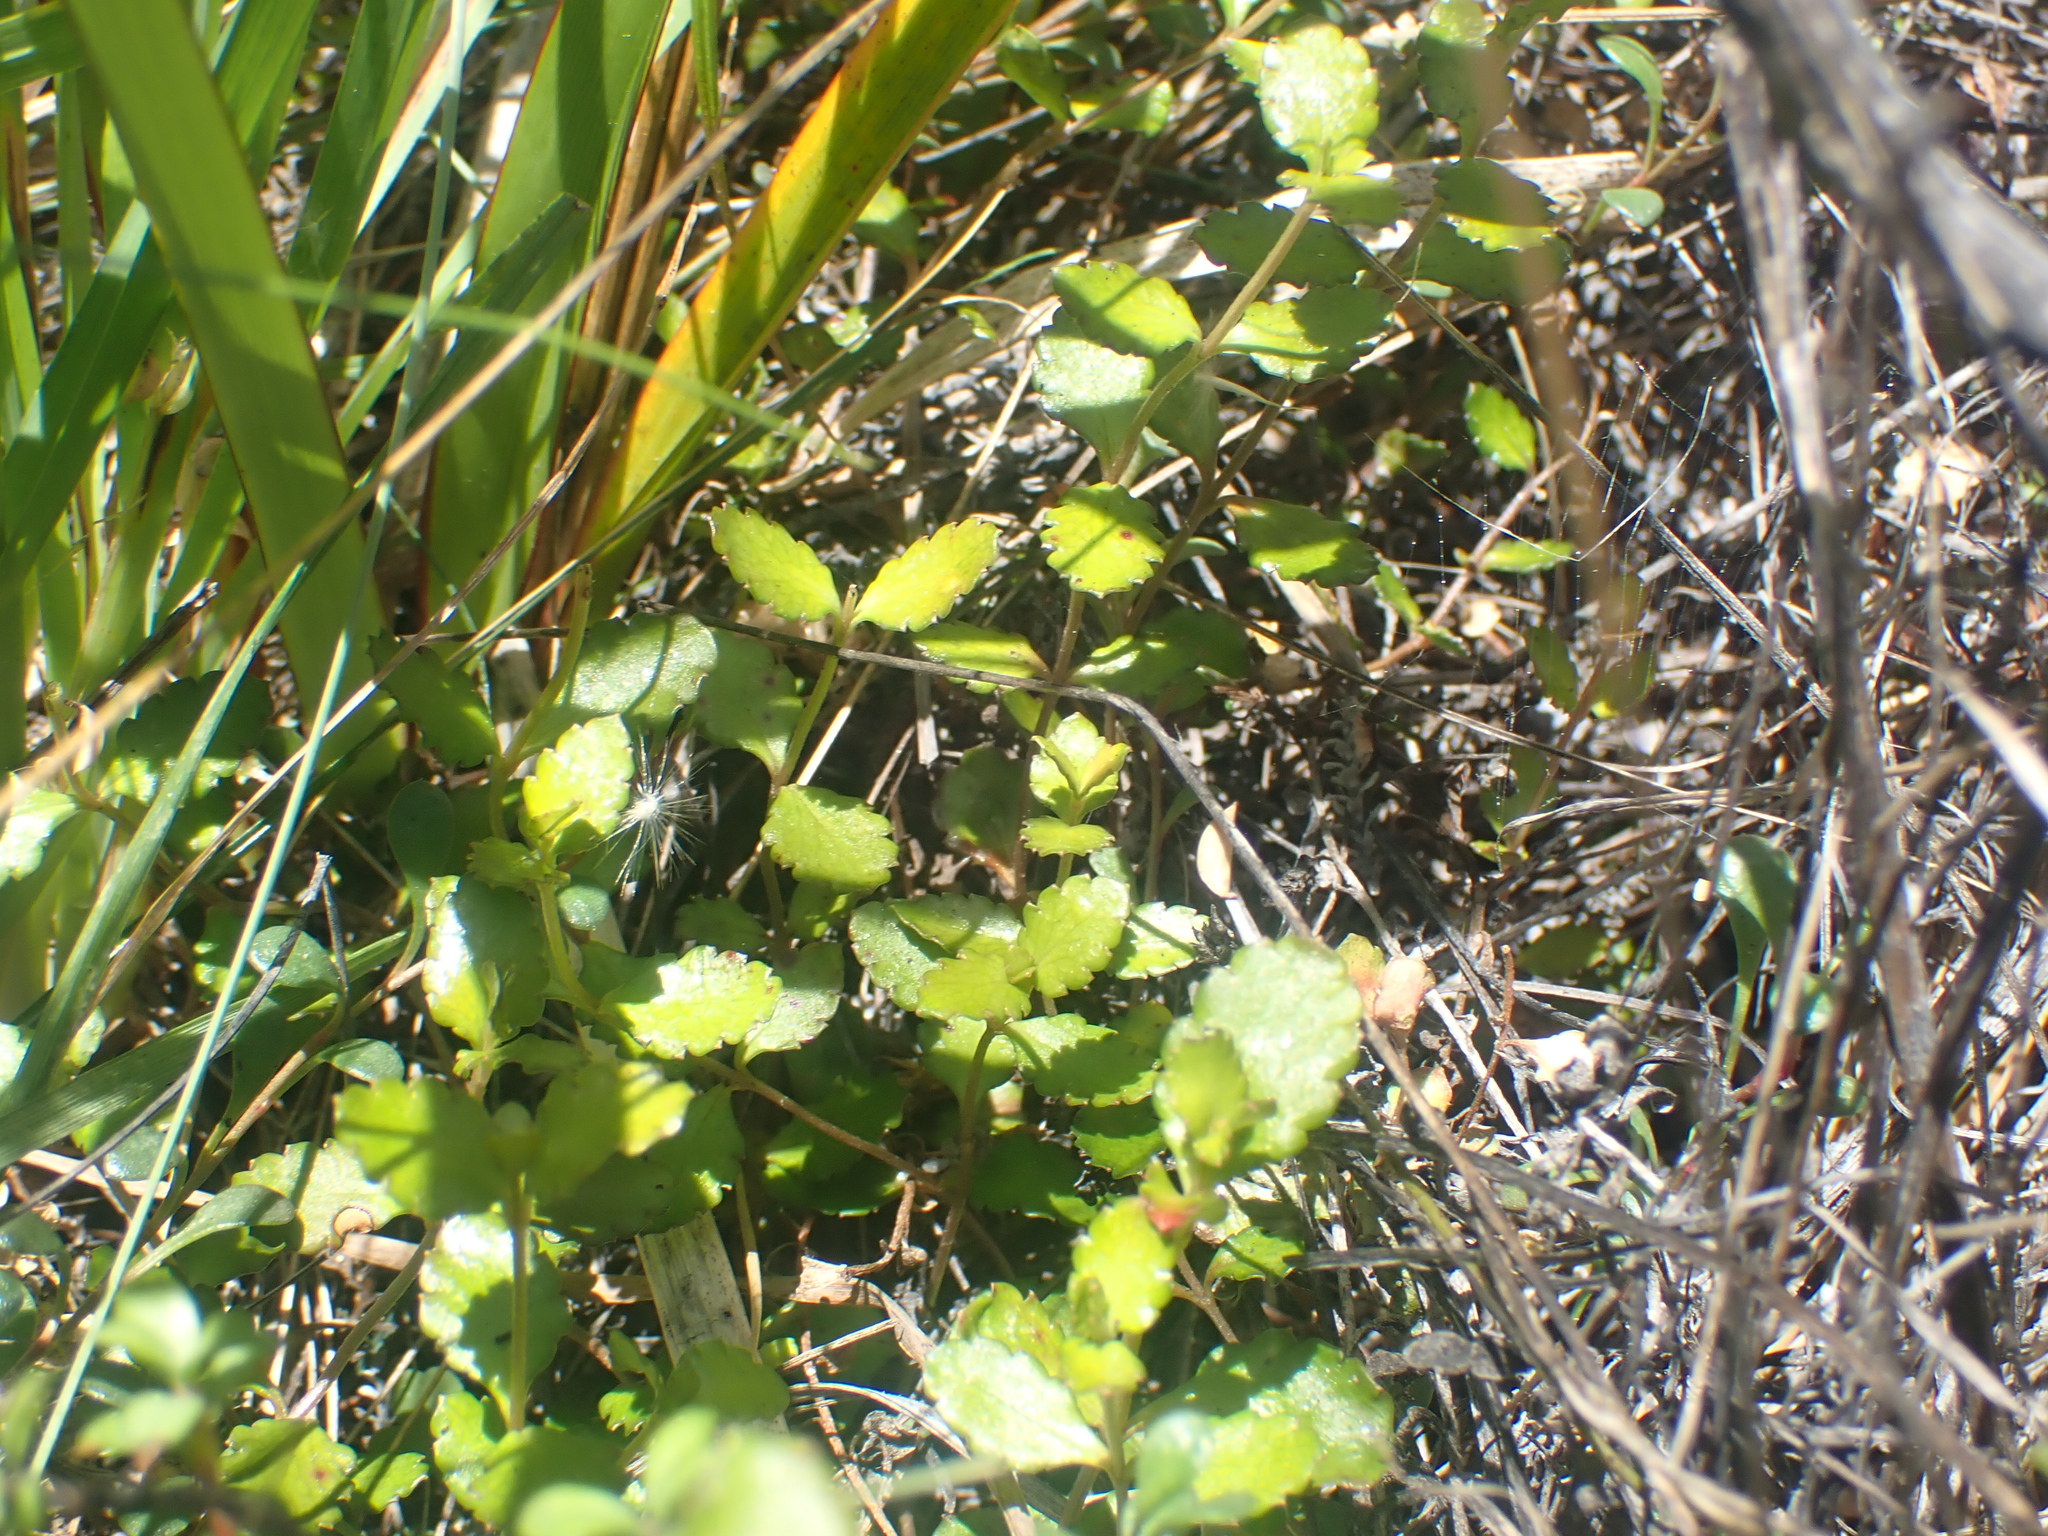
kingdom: Plantae
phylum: Tracheophyta
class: Magnoliopsida
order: Saxifragales
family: Haloragaceae
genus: Gonocarpus
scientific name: Gonocarpus aggregatus
